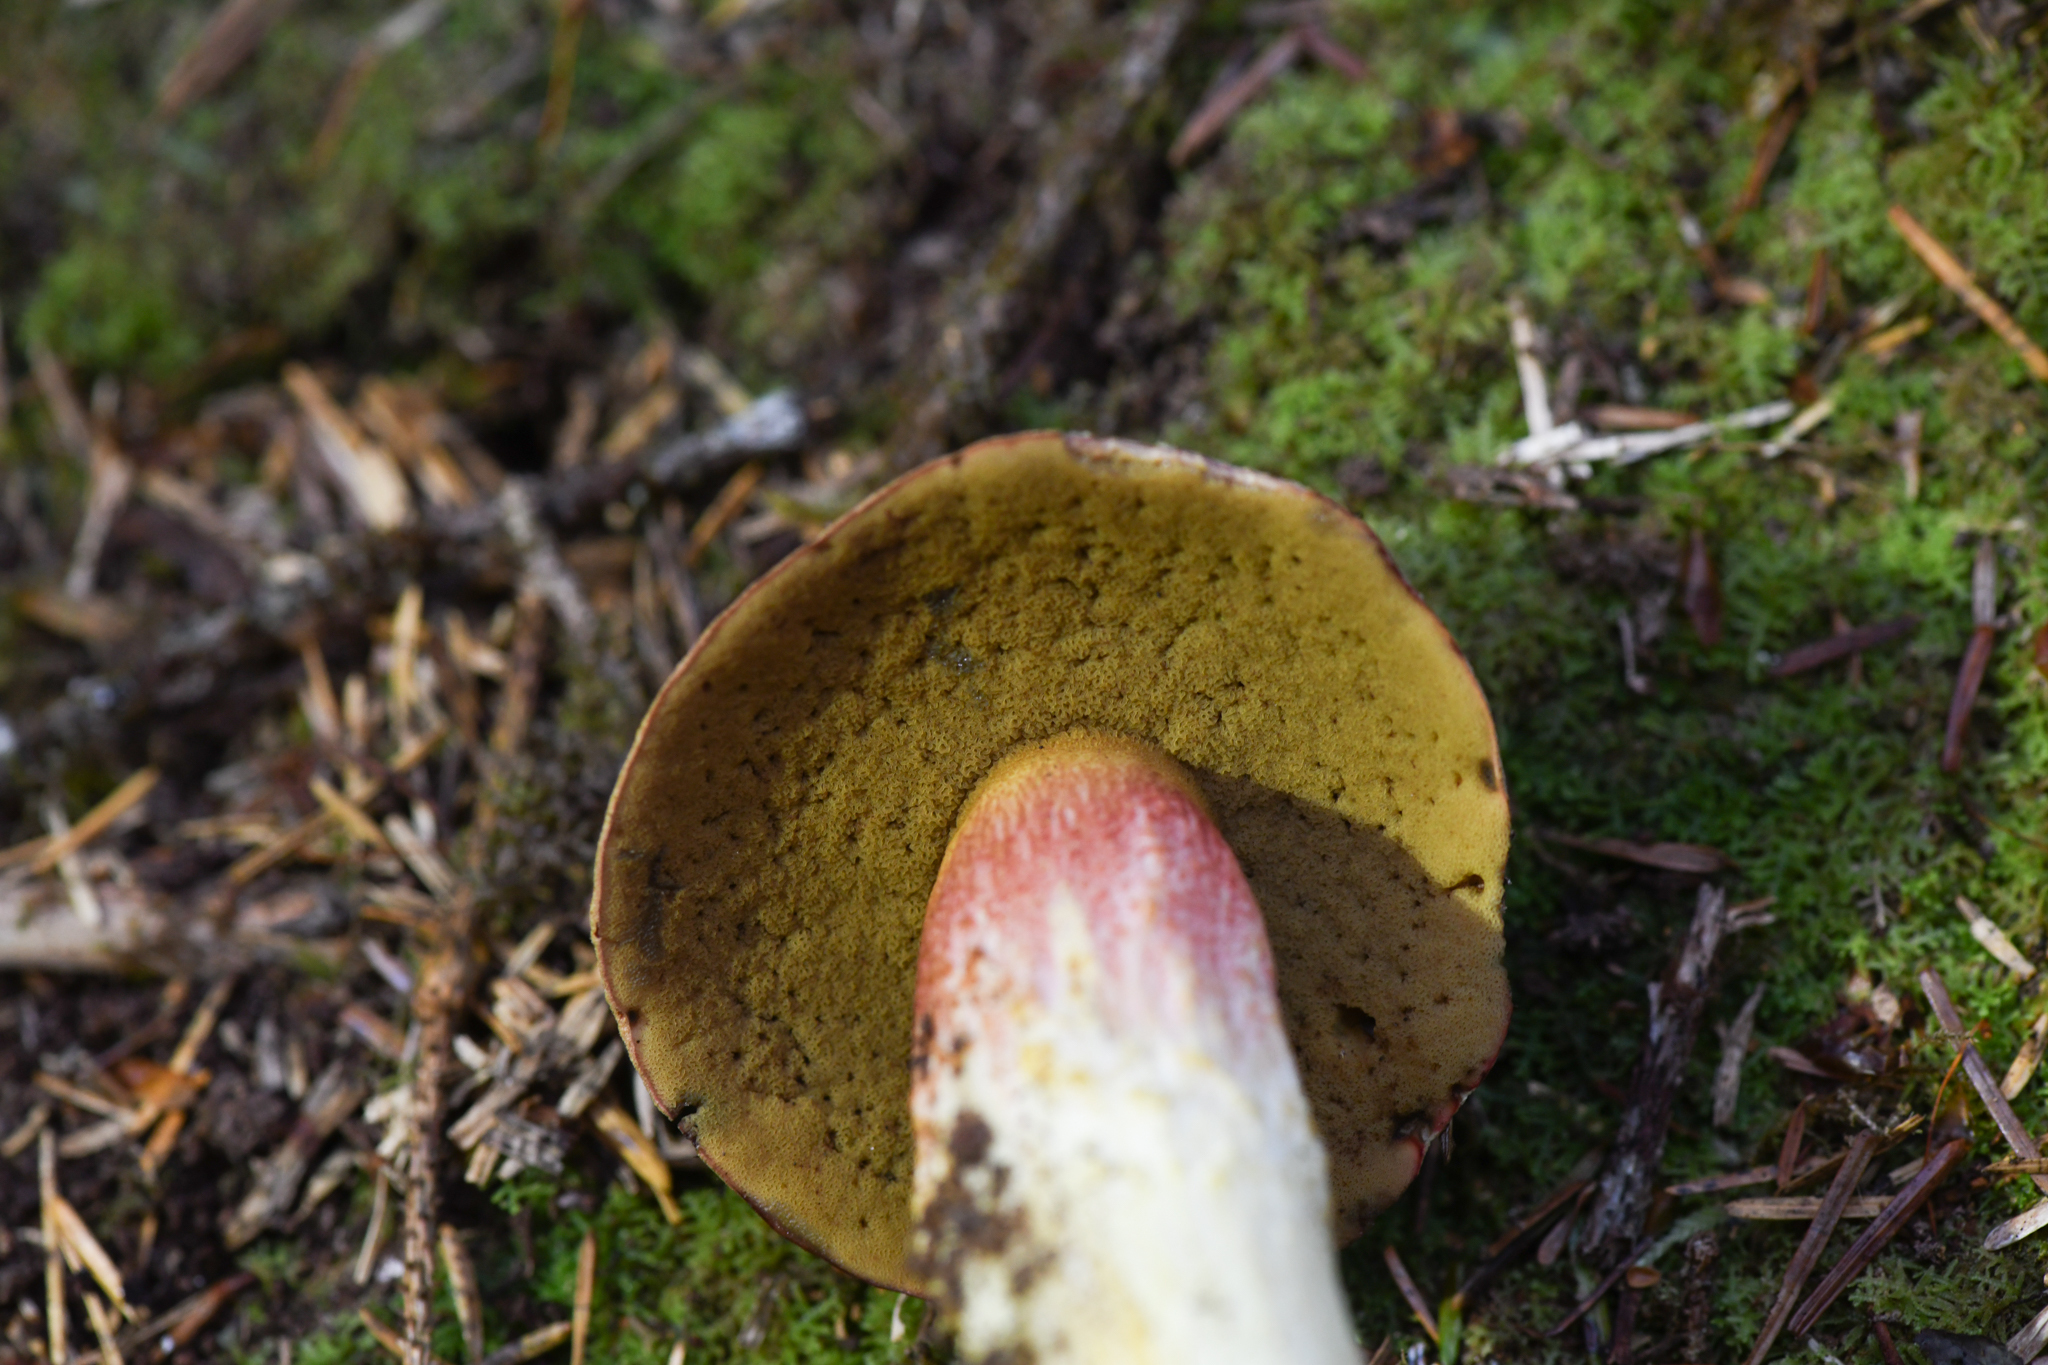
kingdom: Fungi
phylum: Basidiomycota
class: Agaricomycetes
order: Boletales
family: Boletaceae
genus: Boletus
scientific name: Boletus smithii
